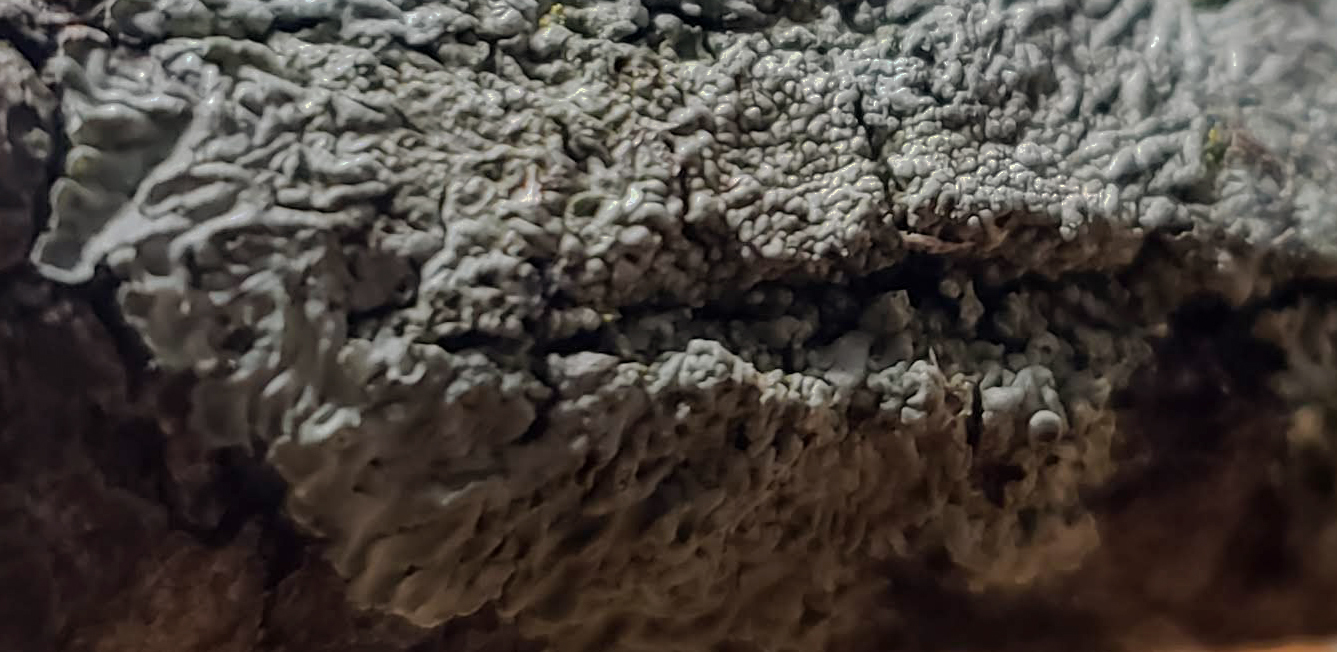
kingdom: Fungi
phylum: Ascomycota
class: Lecanoromycetes
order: Caliciales
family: Physciaceae
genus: Hyperphyscia
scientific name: Hyperphyscia syncolla
